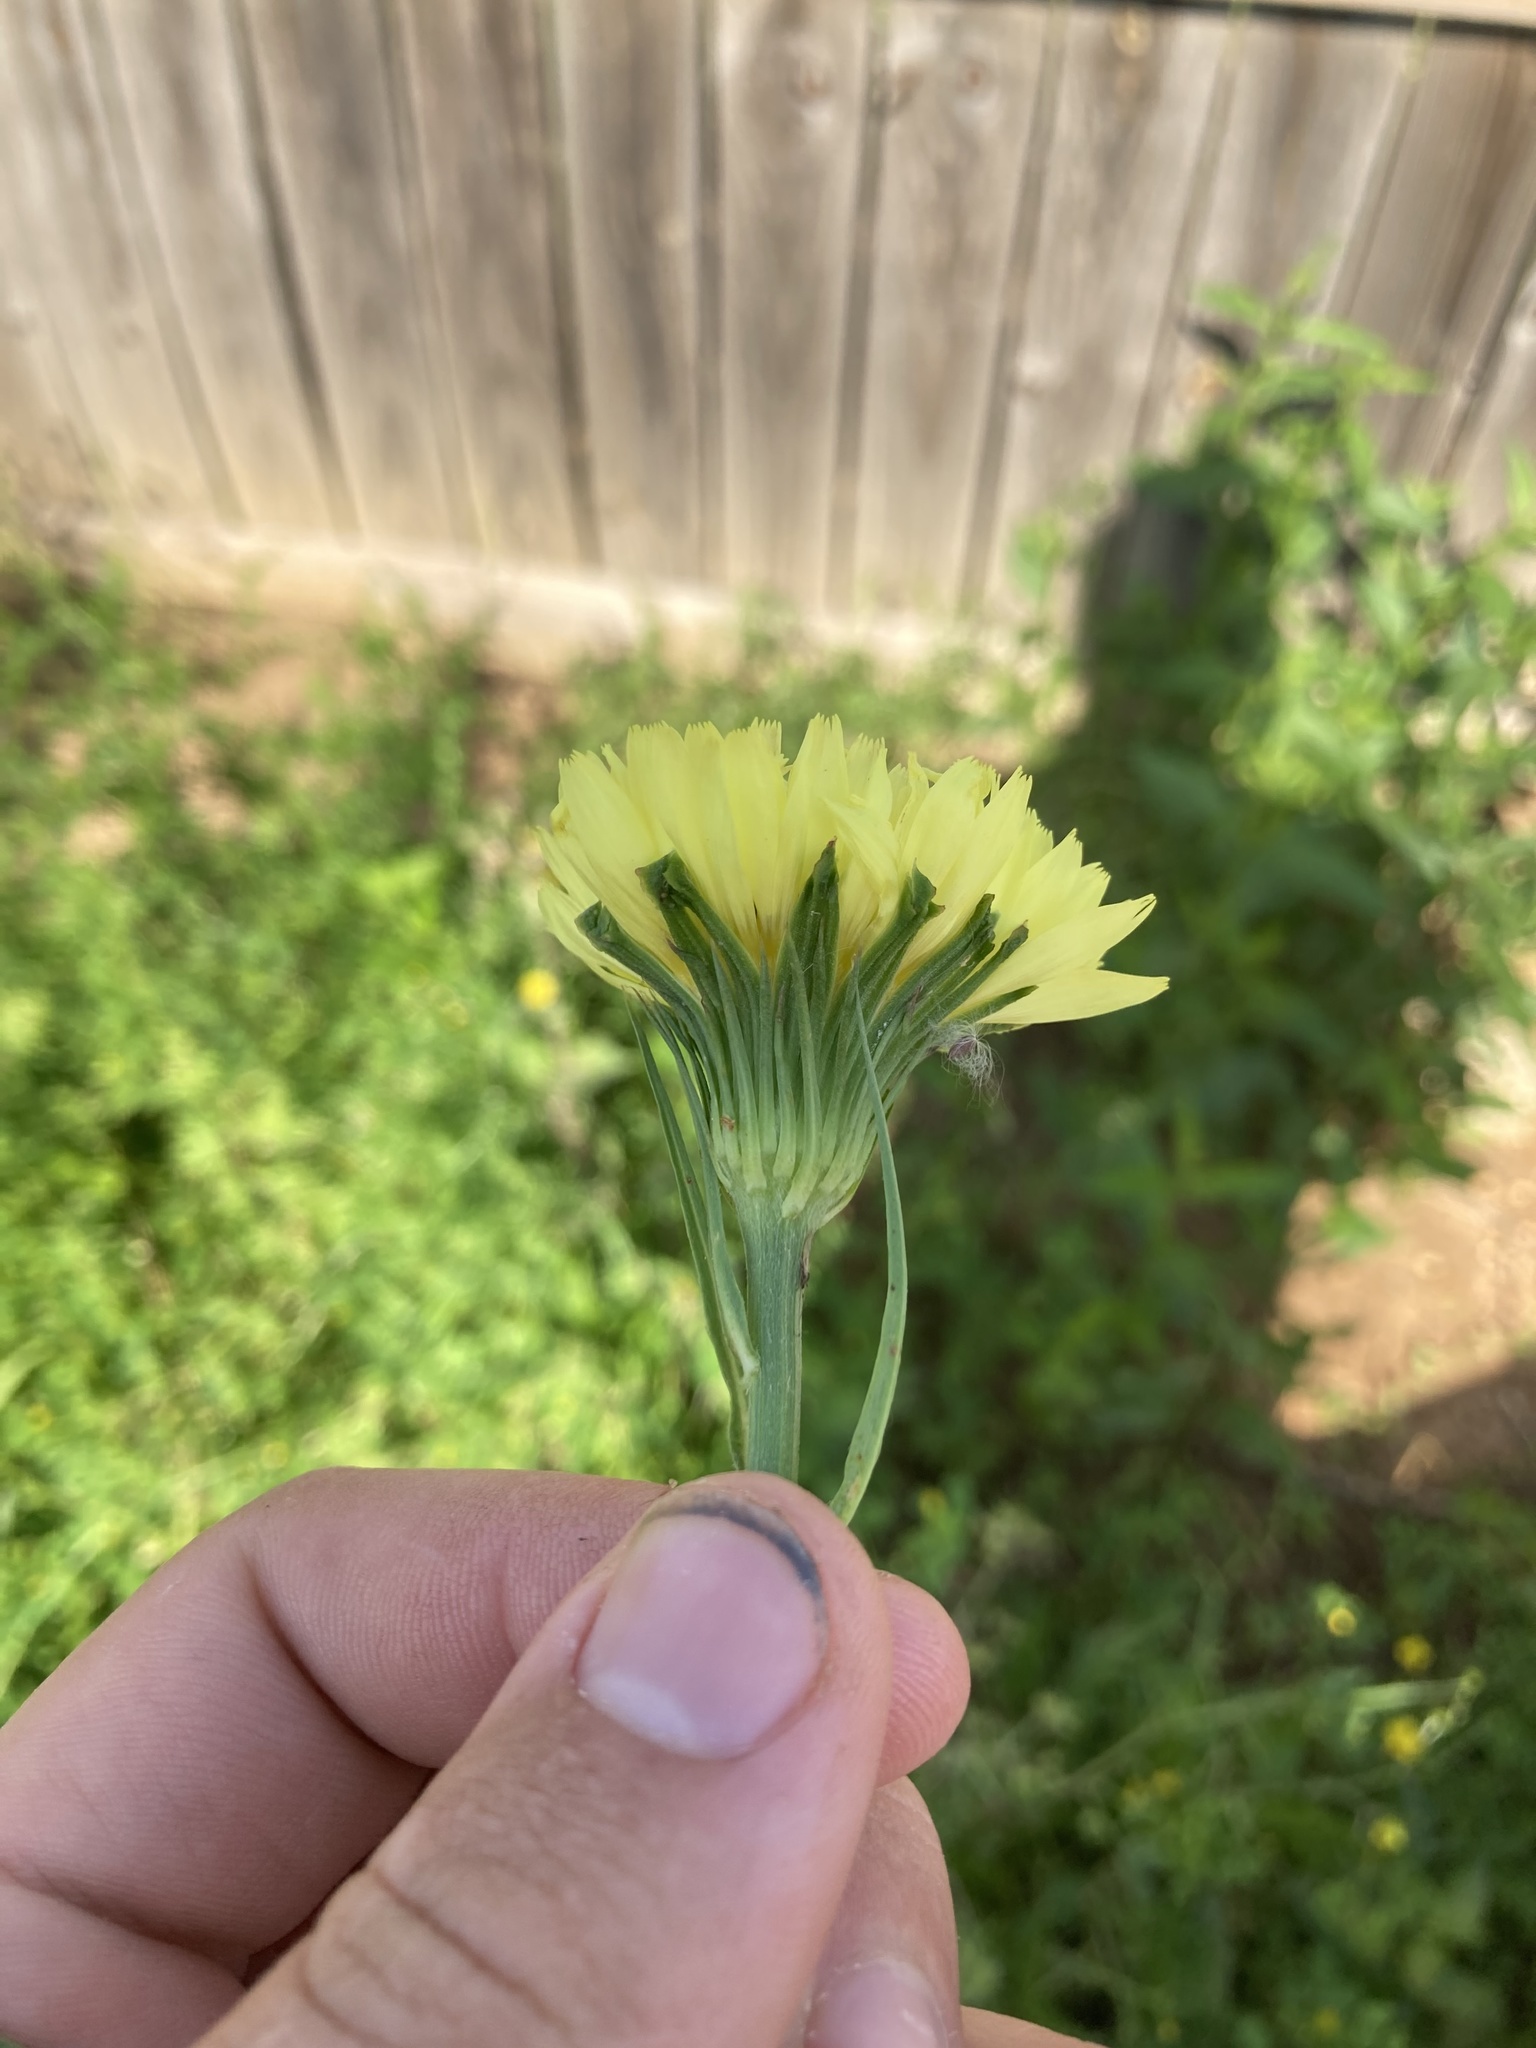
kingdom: Plantae
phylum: Tracheophyta
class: Magnoliopsida
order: Asterales
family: Asteraceae
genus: Pyrrhopappus
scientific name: Pyrrhopappus carolinianus
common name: Carolina desert-chicory
